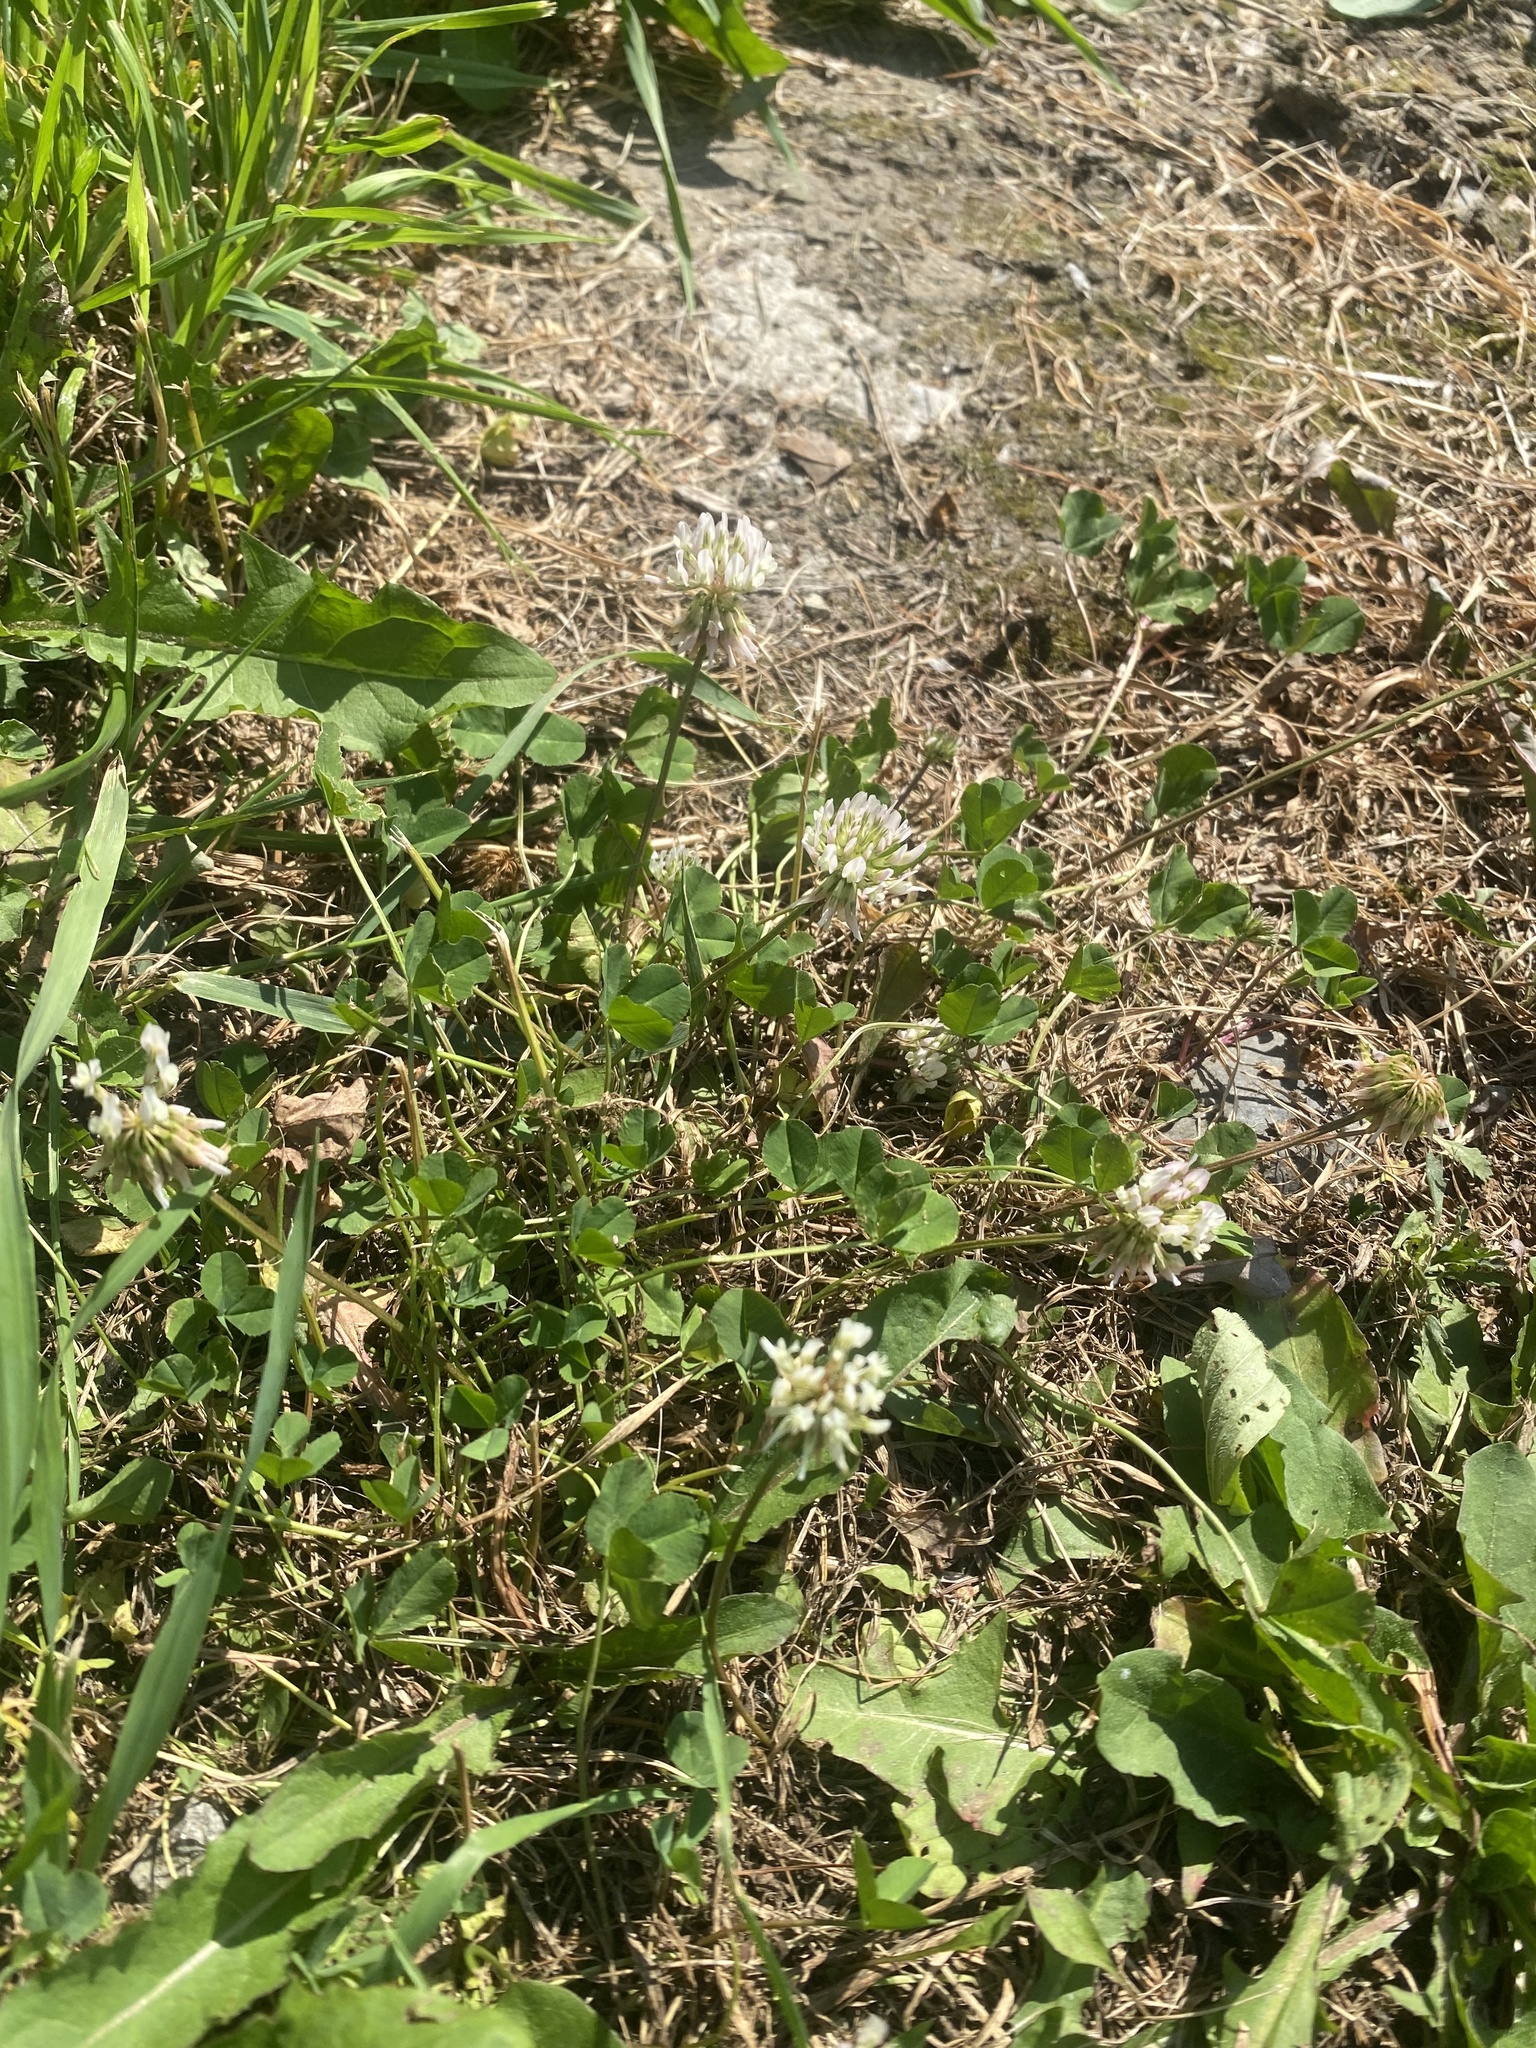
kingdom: Plantae
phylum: Tracheophyta
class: Magnoliopsida
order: Fabales
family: Fabaceae
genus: Trifolium
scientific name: Trifolium repens
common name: White clover
